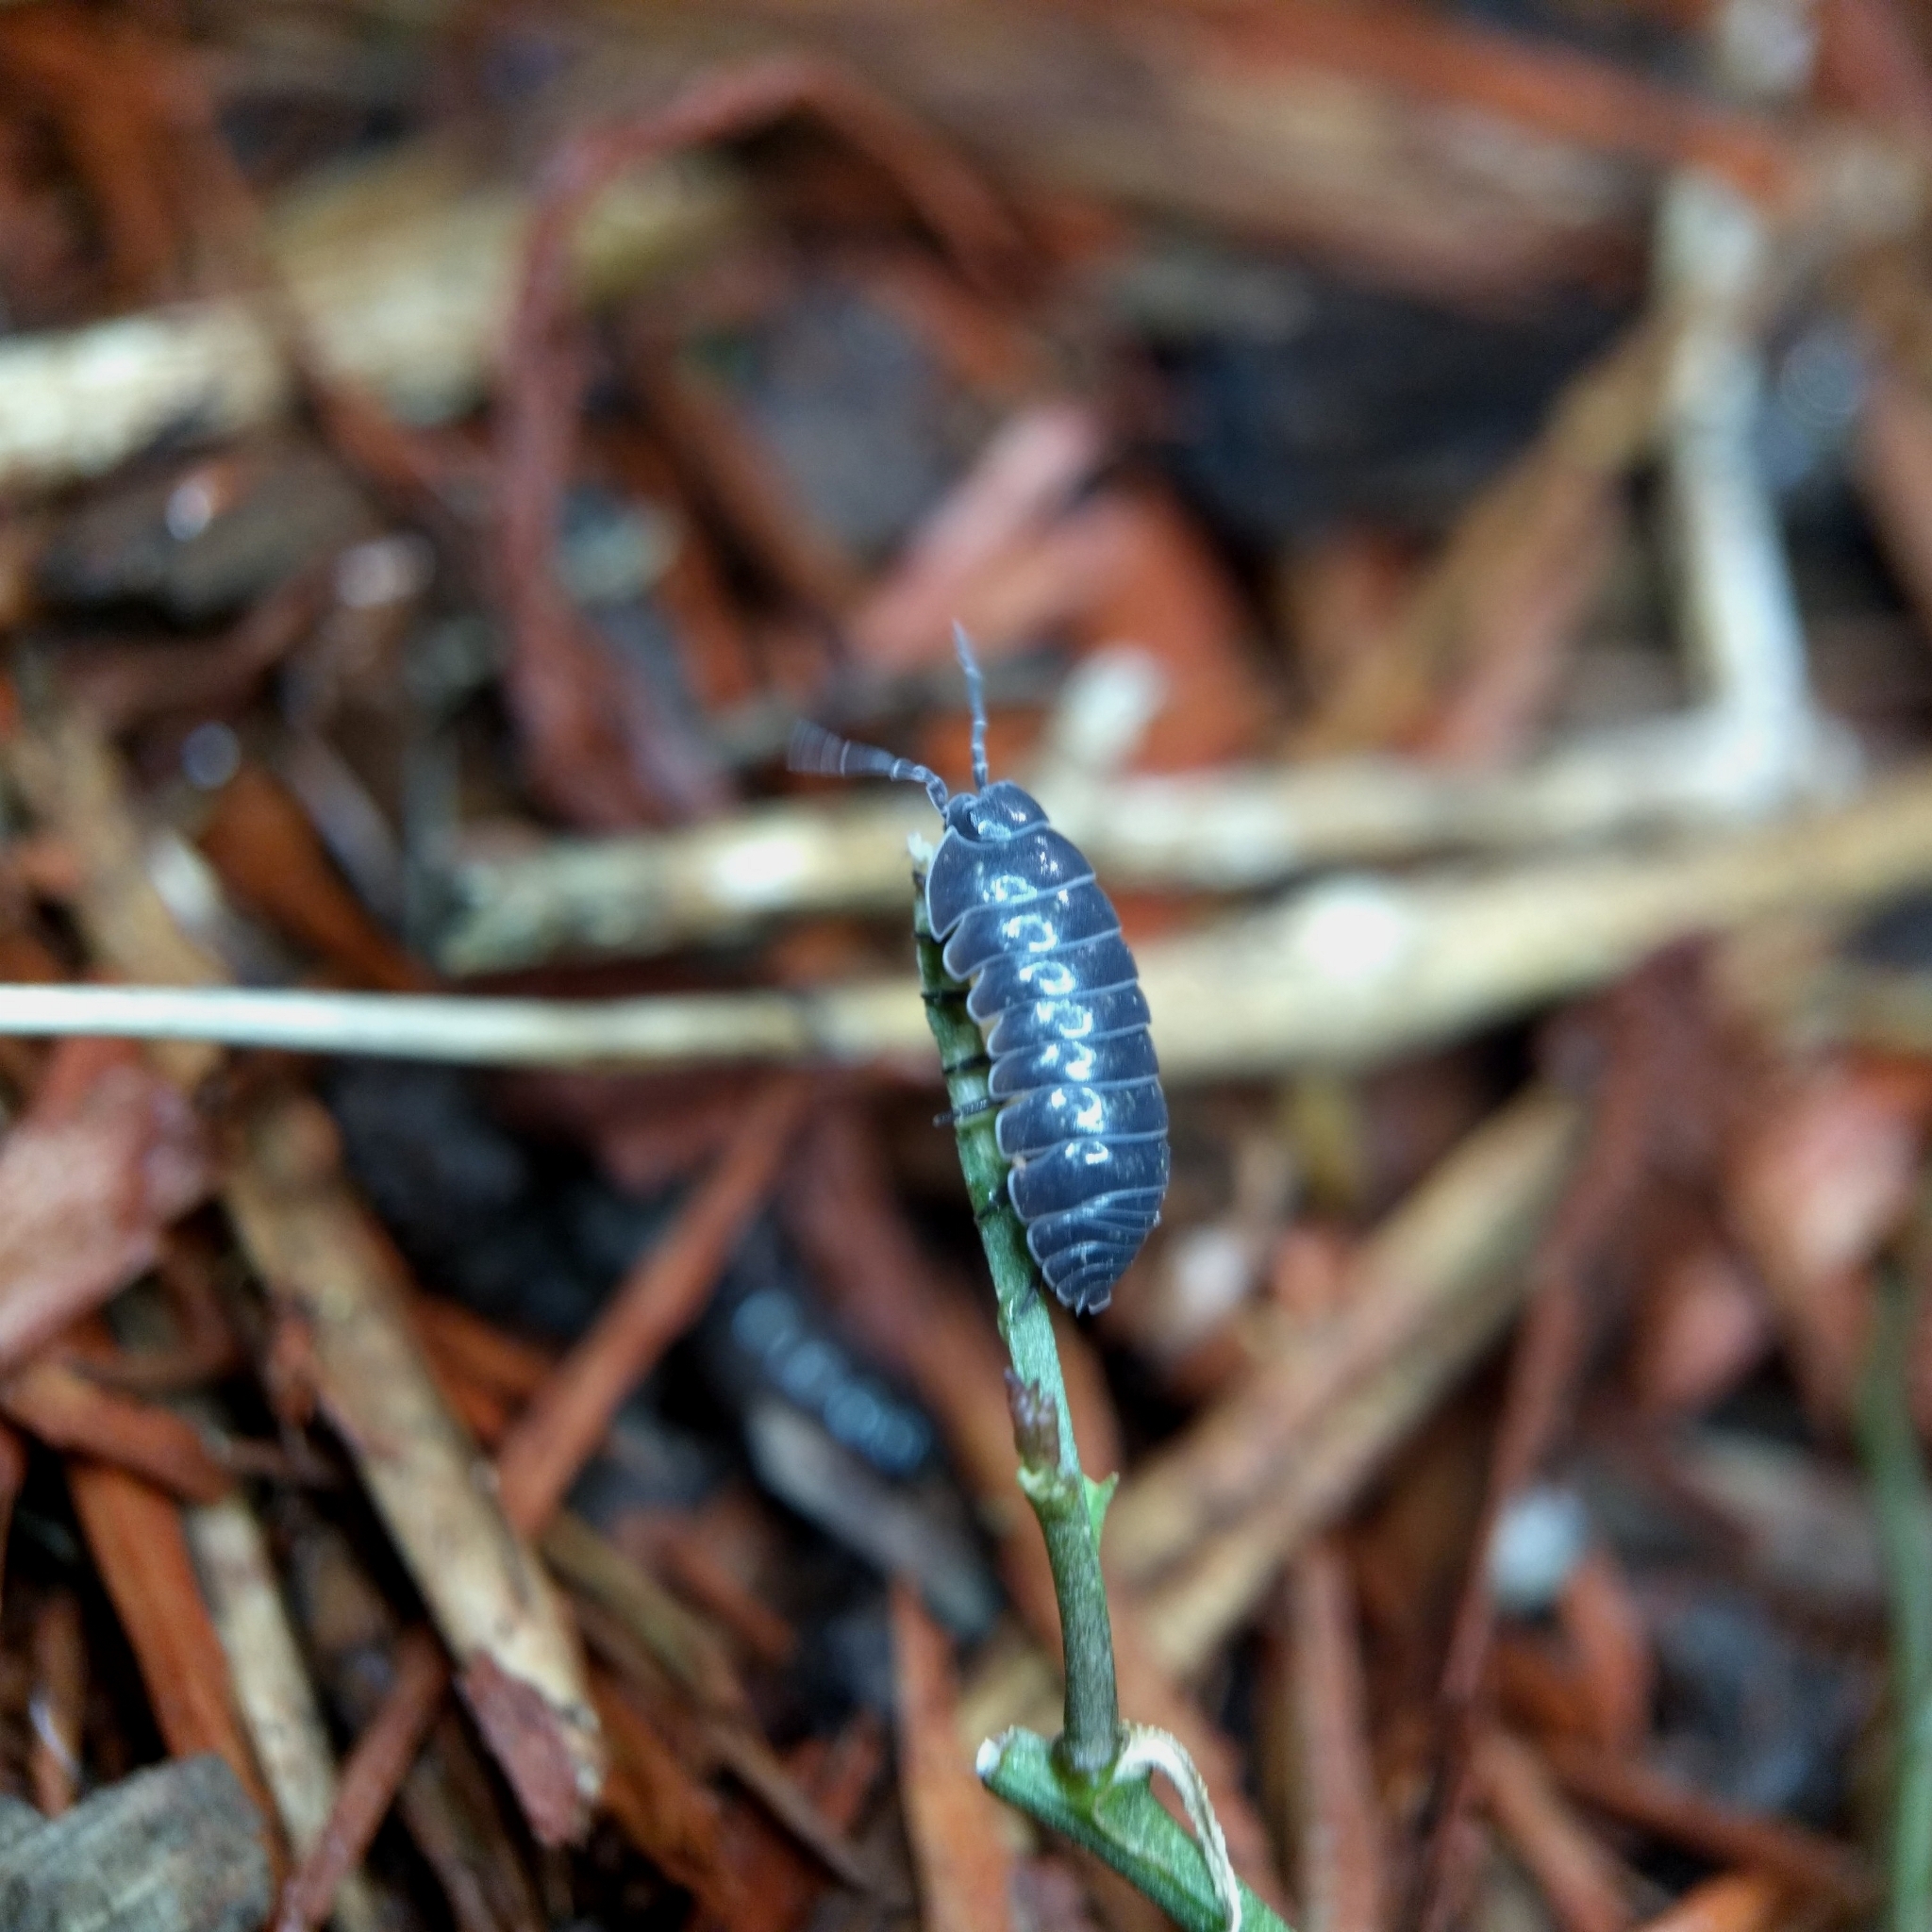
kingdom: Animalia
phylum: Arthropoda
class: Malacostraca
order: Isopoda
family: Armadillidiidae
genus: Armadillidium
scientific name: Armadillidium vulgare
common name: Common pill woodlouse
